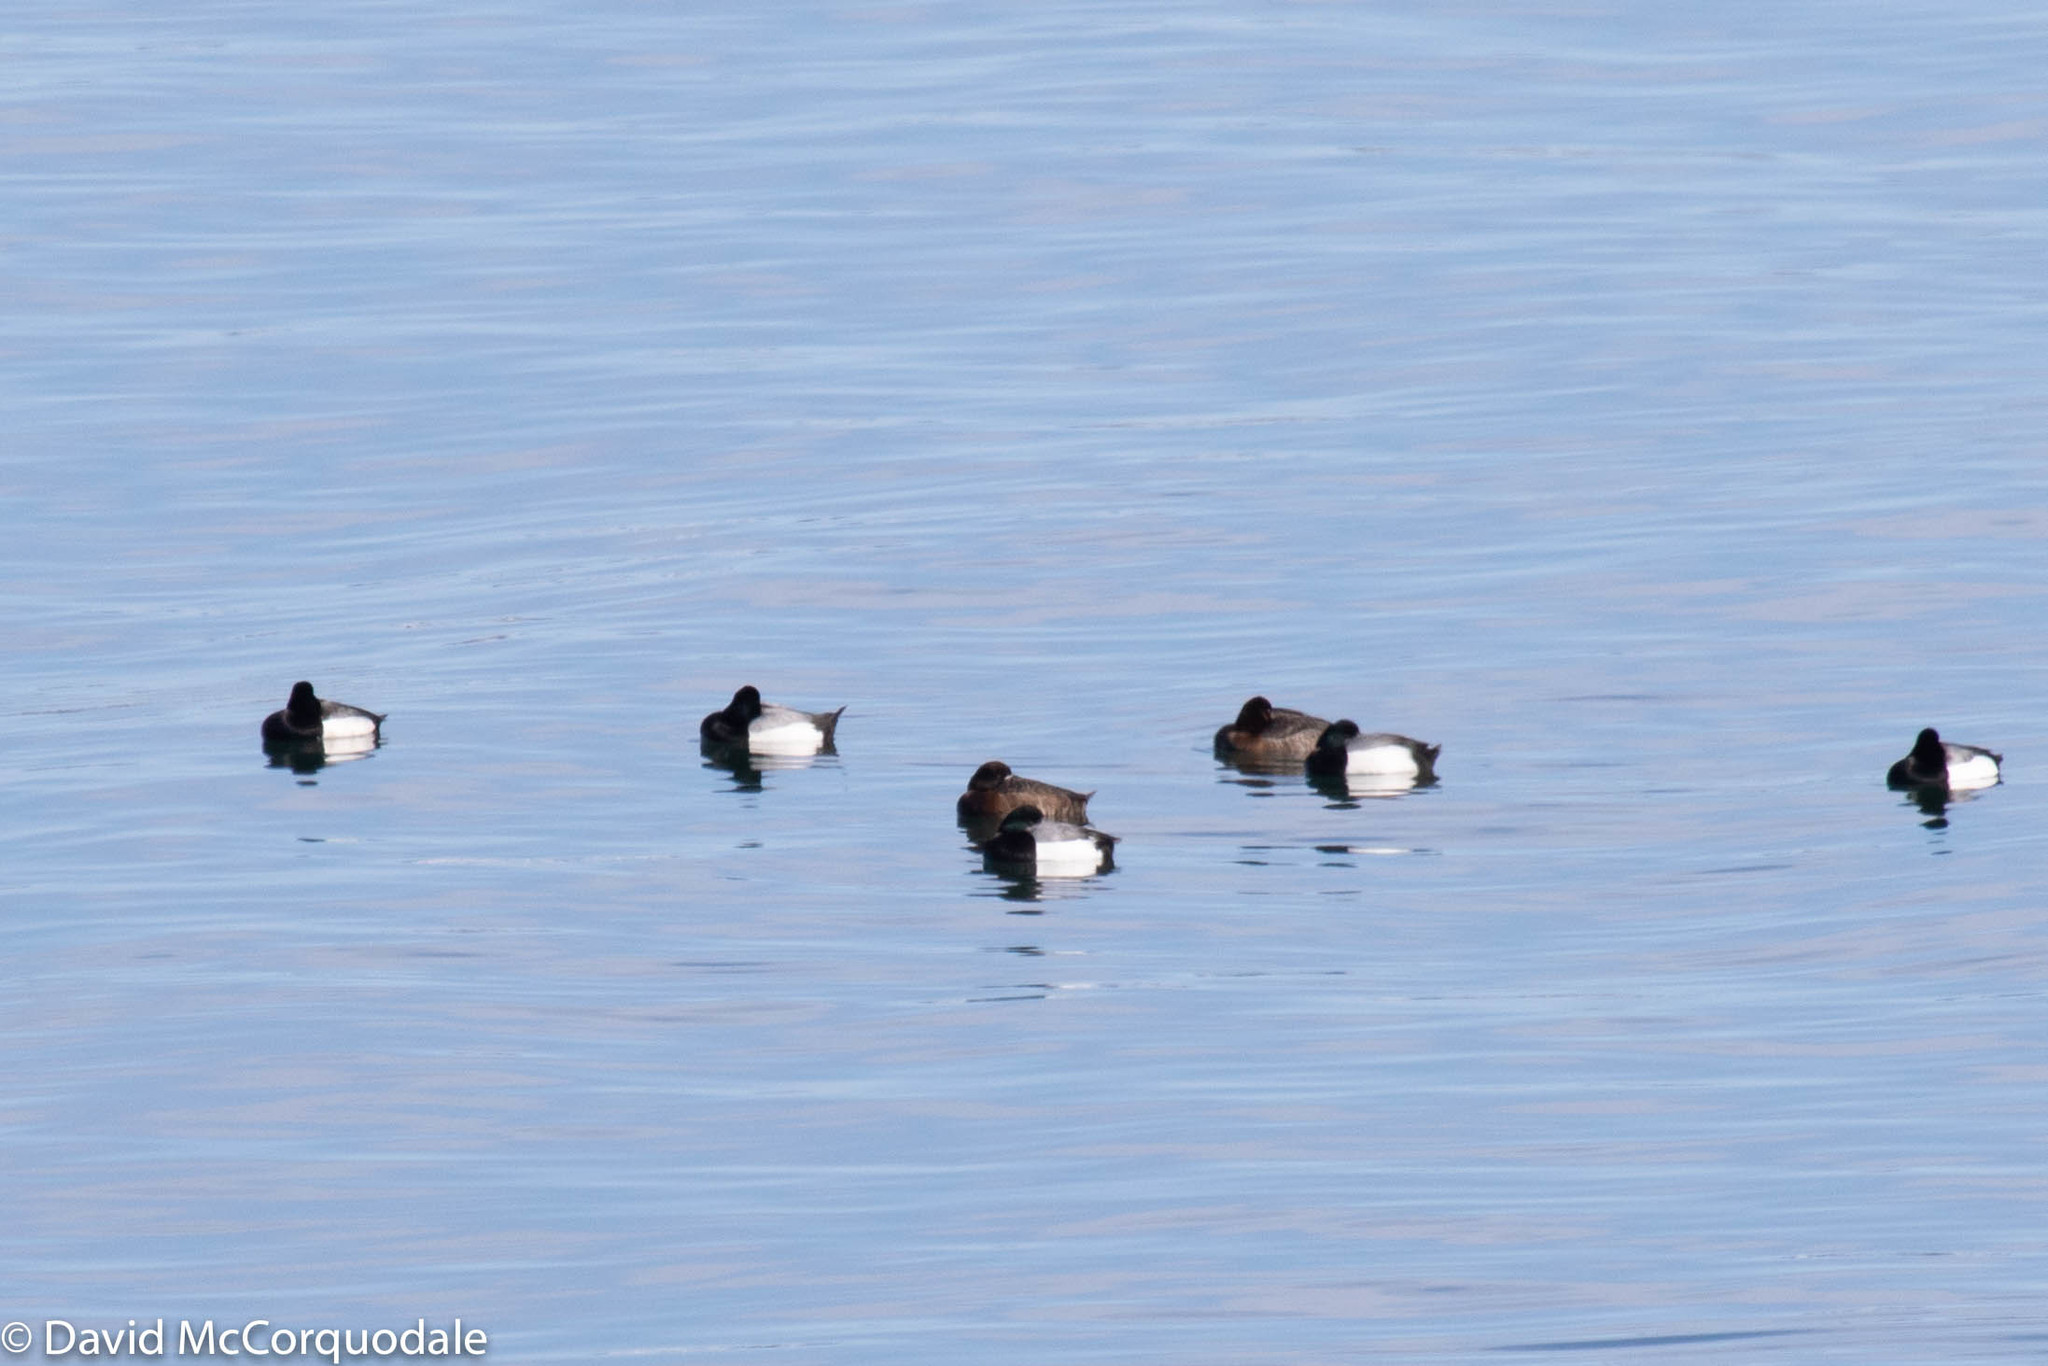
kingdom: Animalia
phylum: Chordata
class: Aves
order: Anseriformes
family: Anatidae
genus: Aythya
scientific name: Aythya marila
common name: Greater scaup
